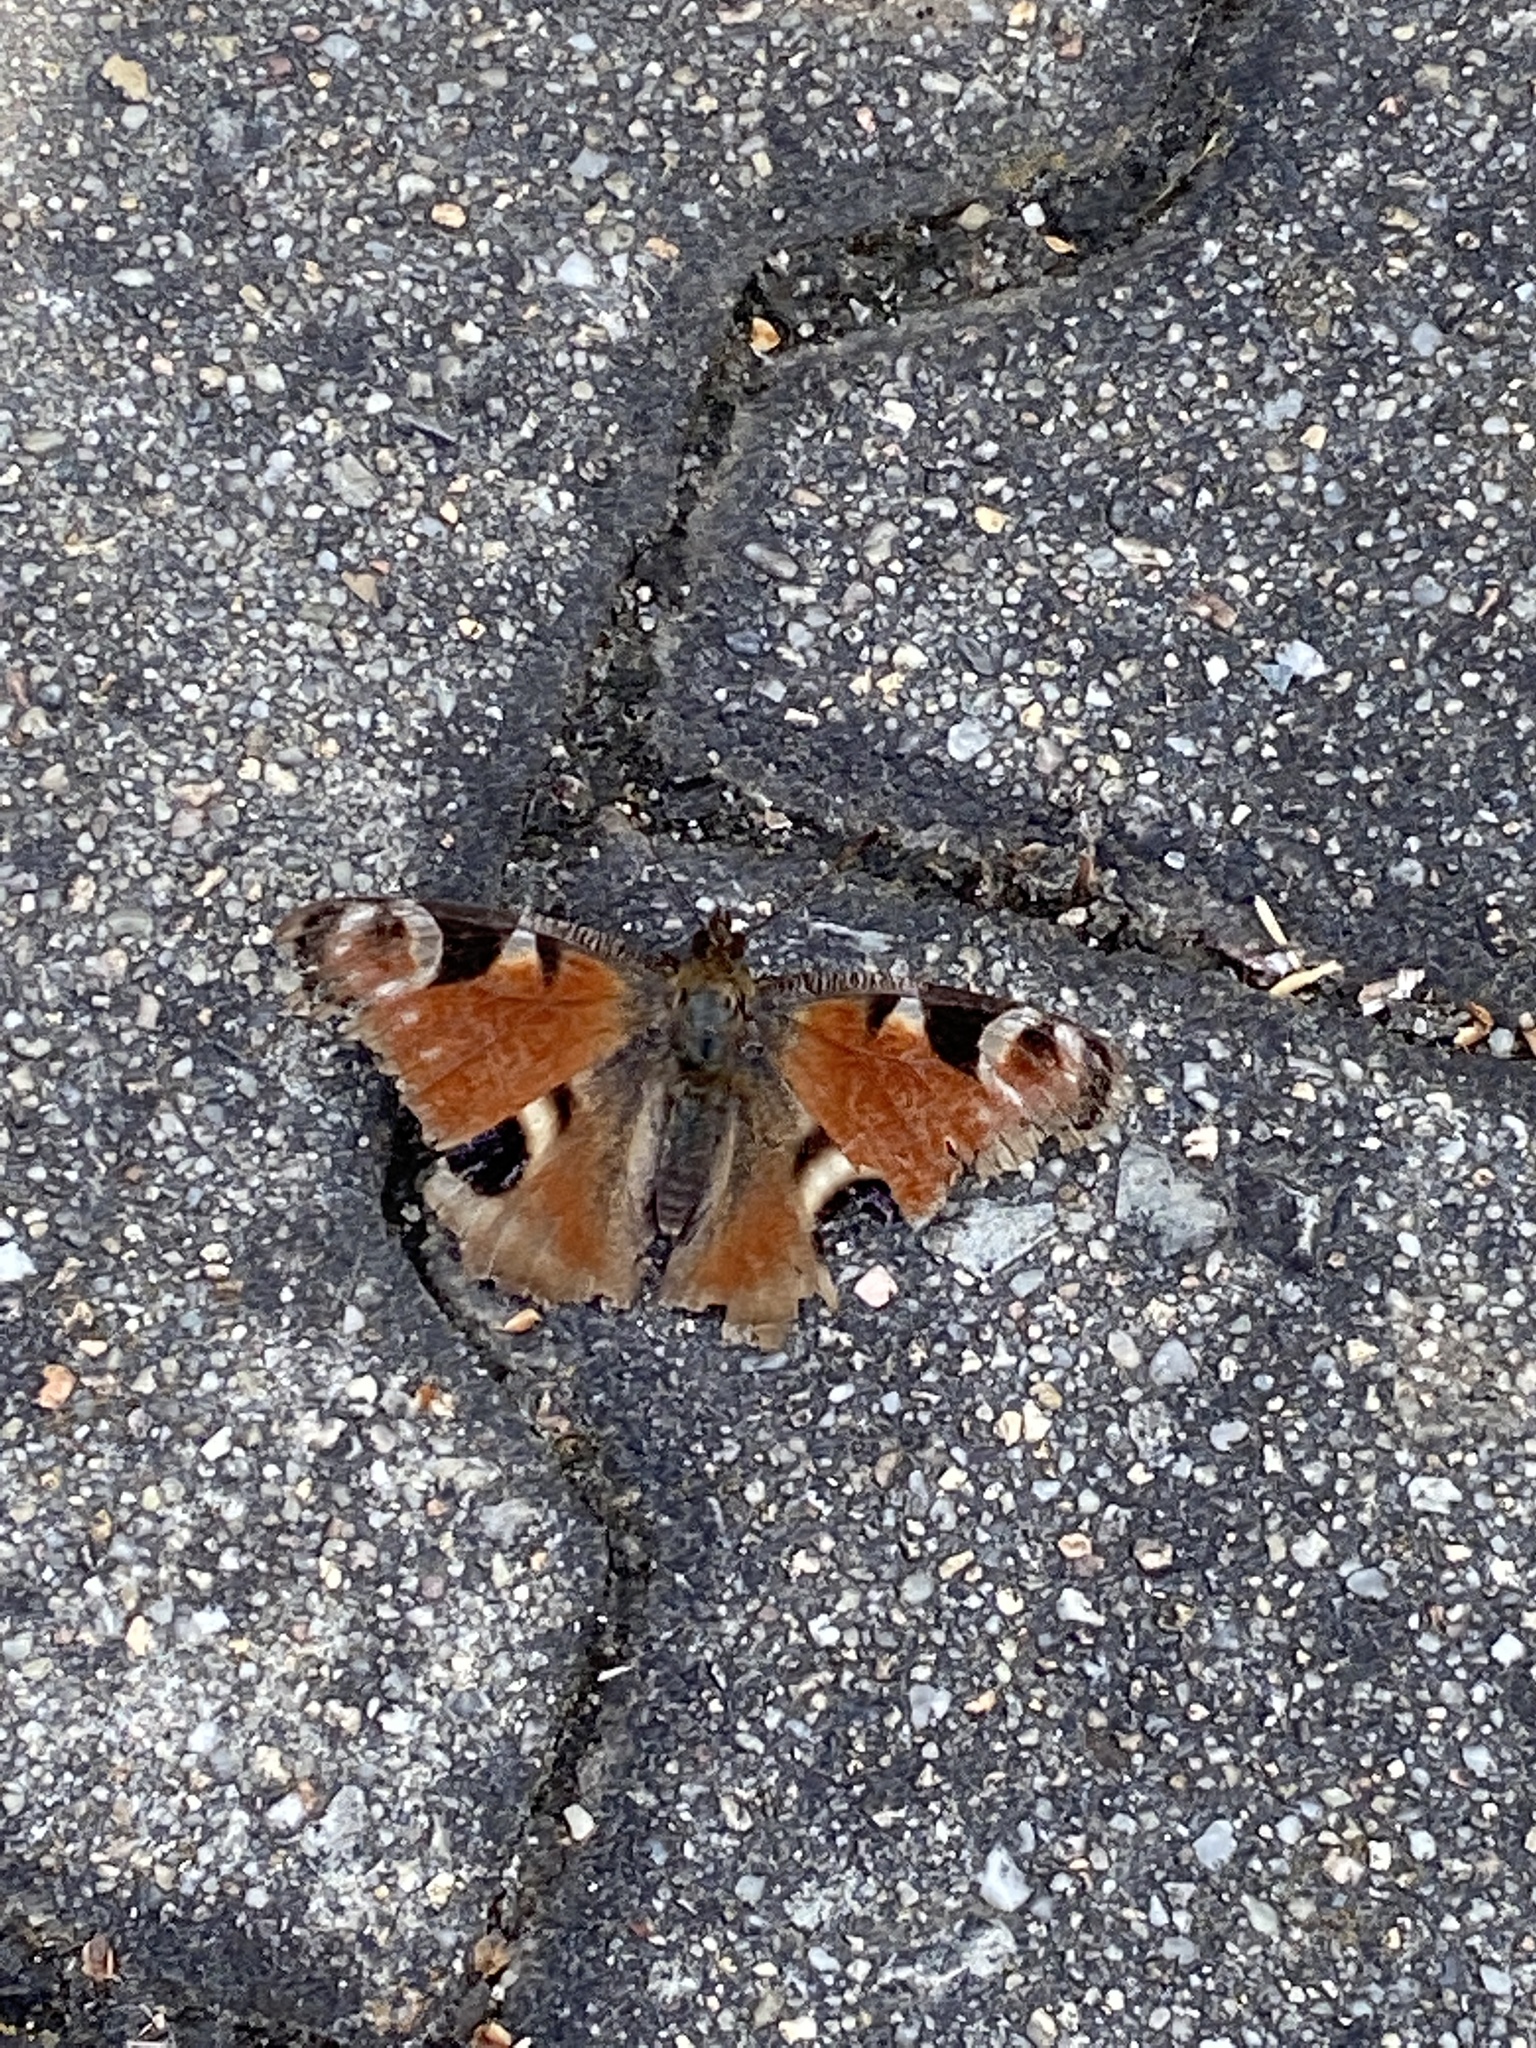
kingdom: Animalia
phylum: Arthropoda
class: Insecta
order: Lepidoptera
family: Nymphalidae
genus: Aglais
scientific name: Aglais io
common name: Peacock
